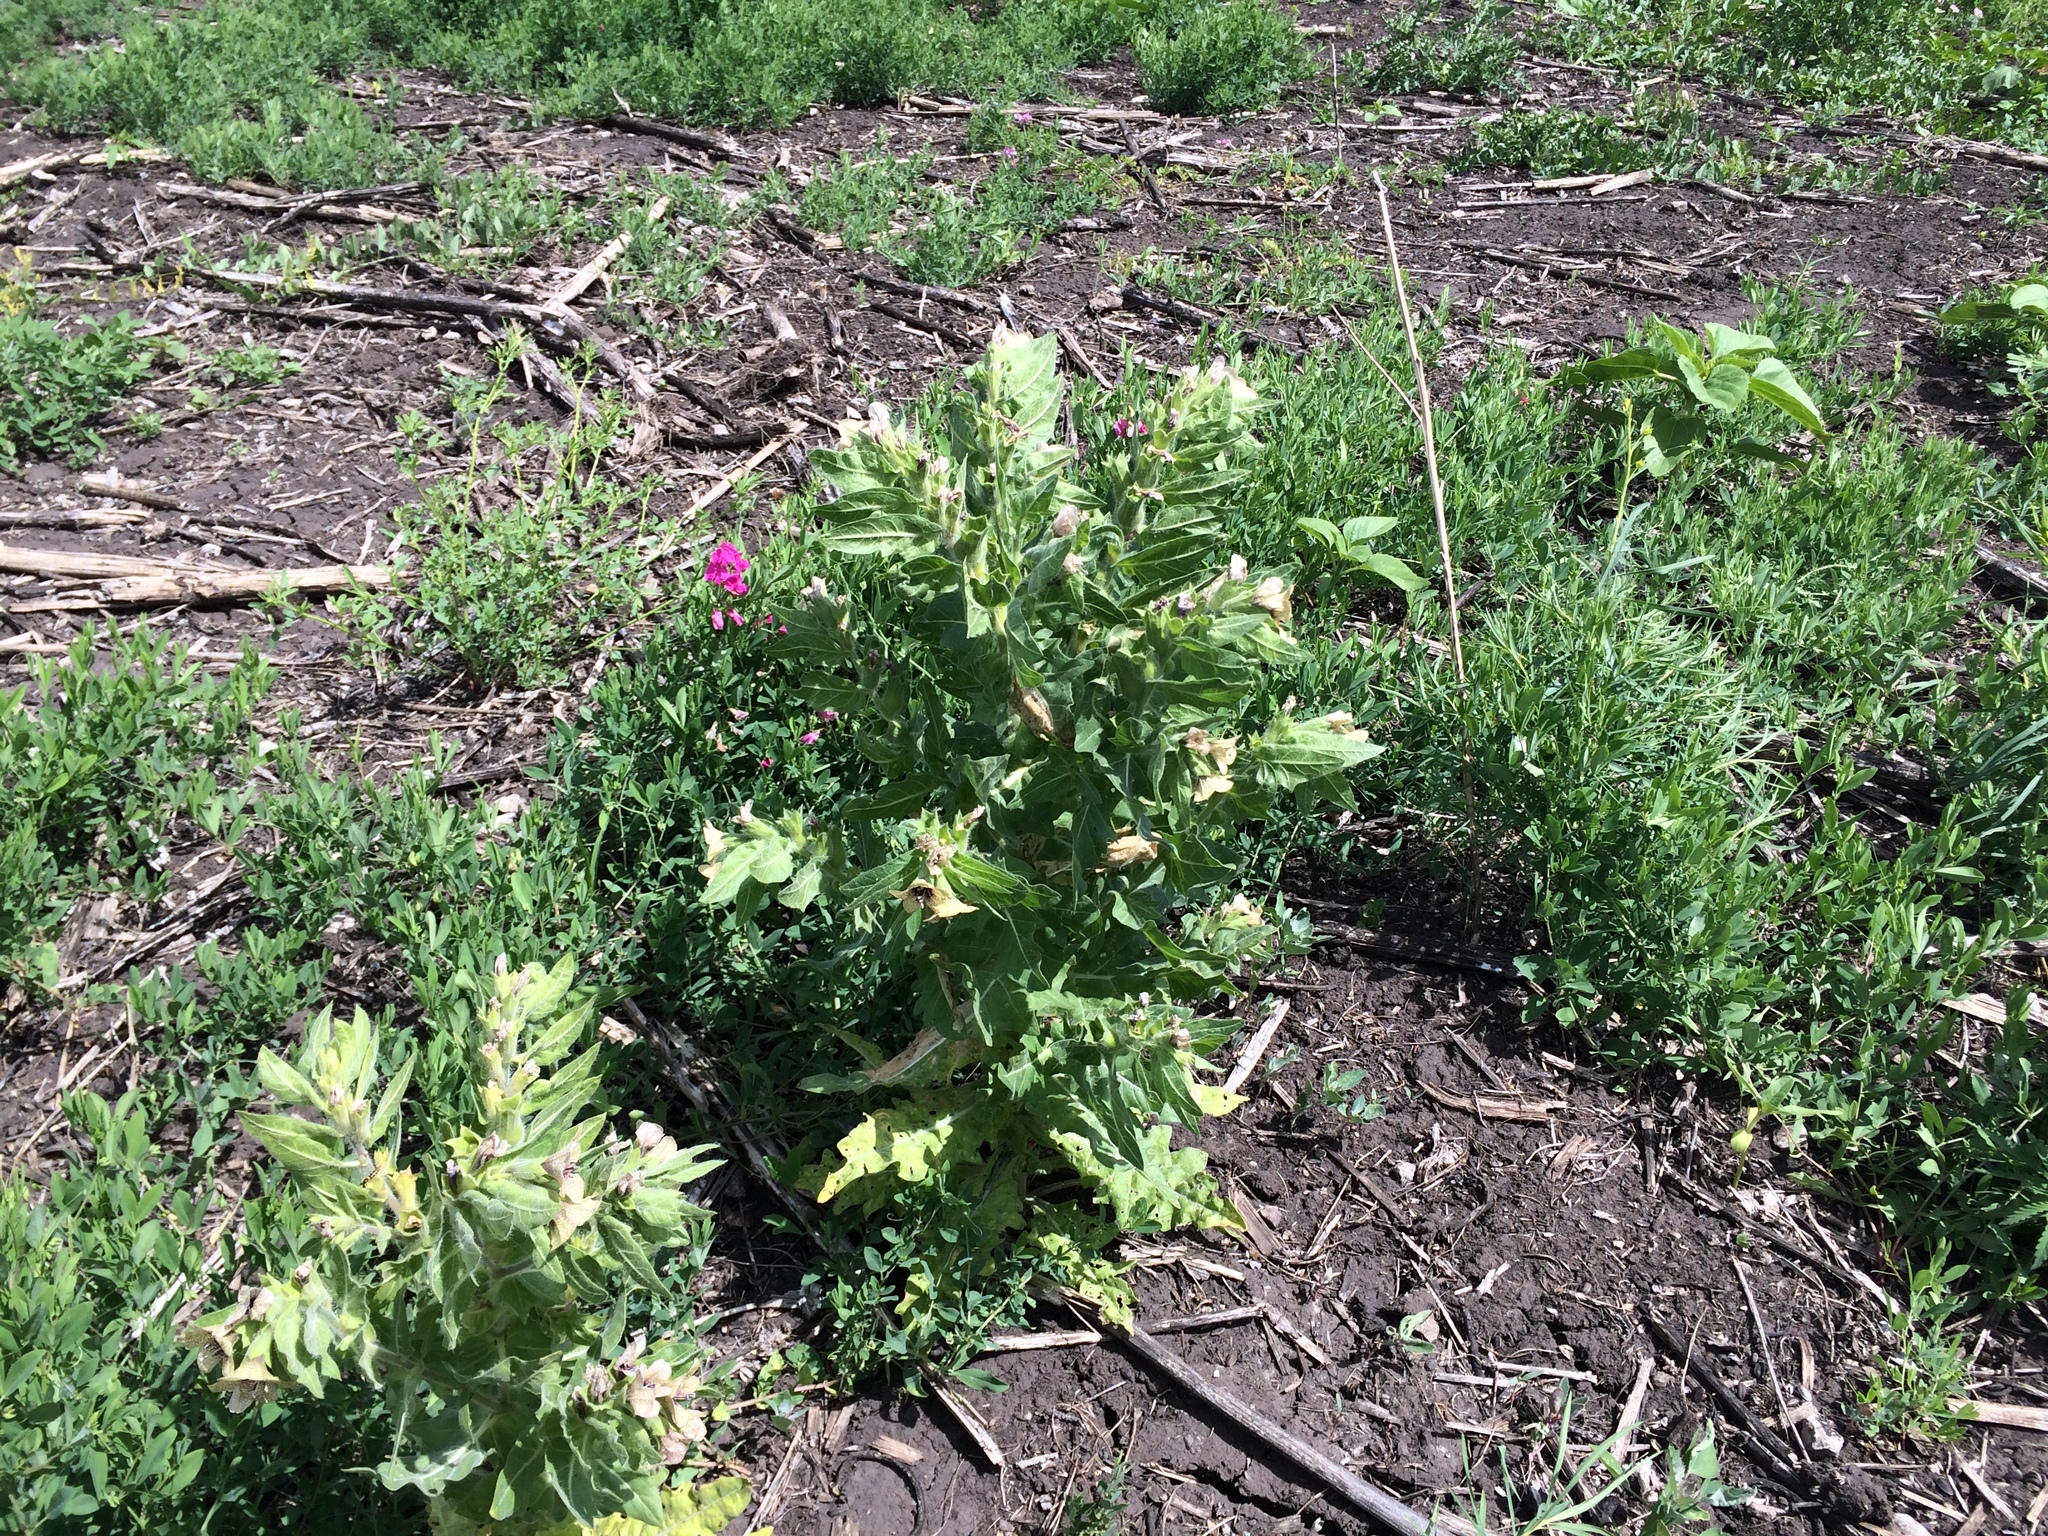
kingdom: Plantae
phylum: Tracheophyta
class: Magnoliopsida
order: Solanales
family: Solanaceae
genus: Hyoscyamus
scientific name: Hyoscyamus niger
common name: Henbane
